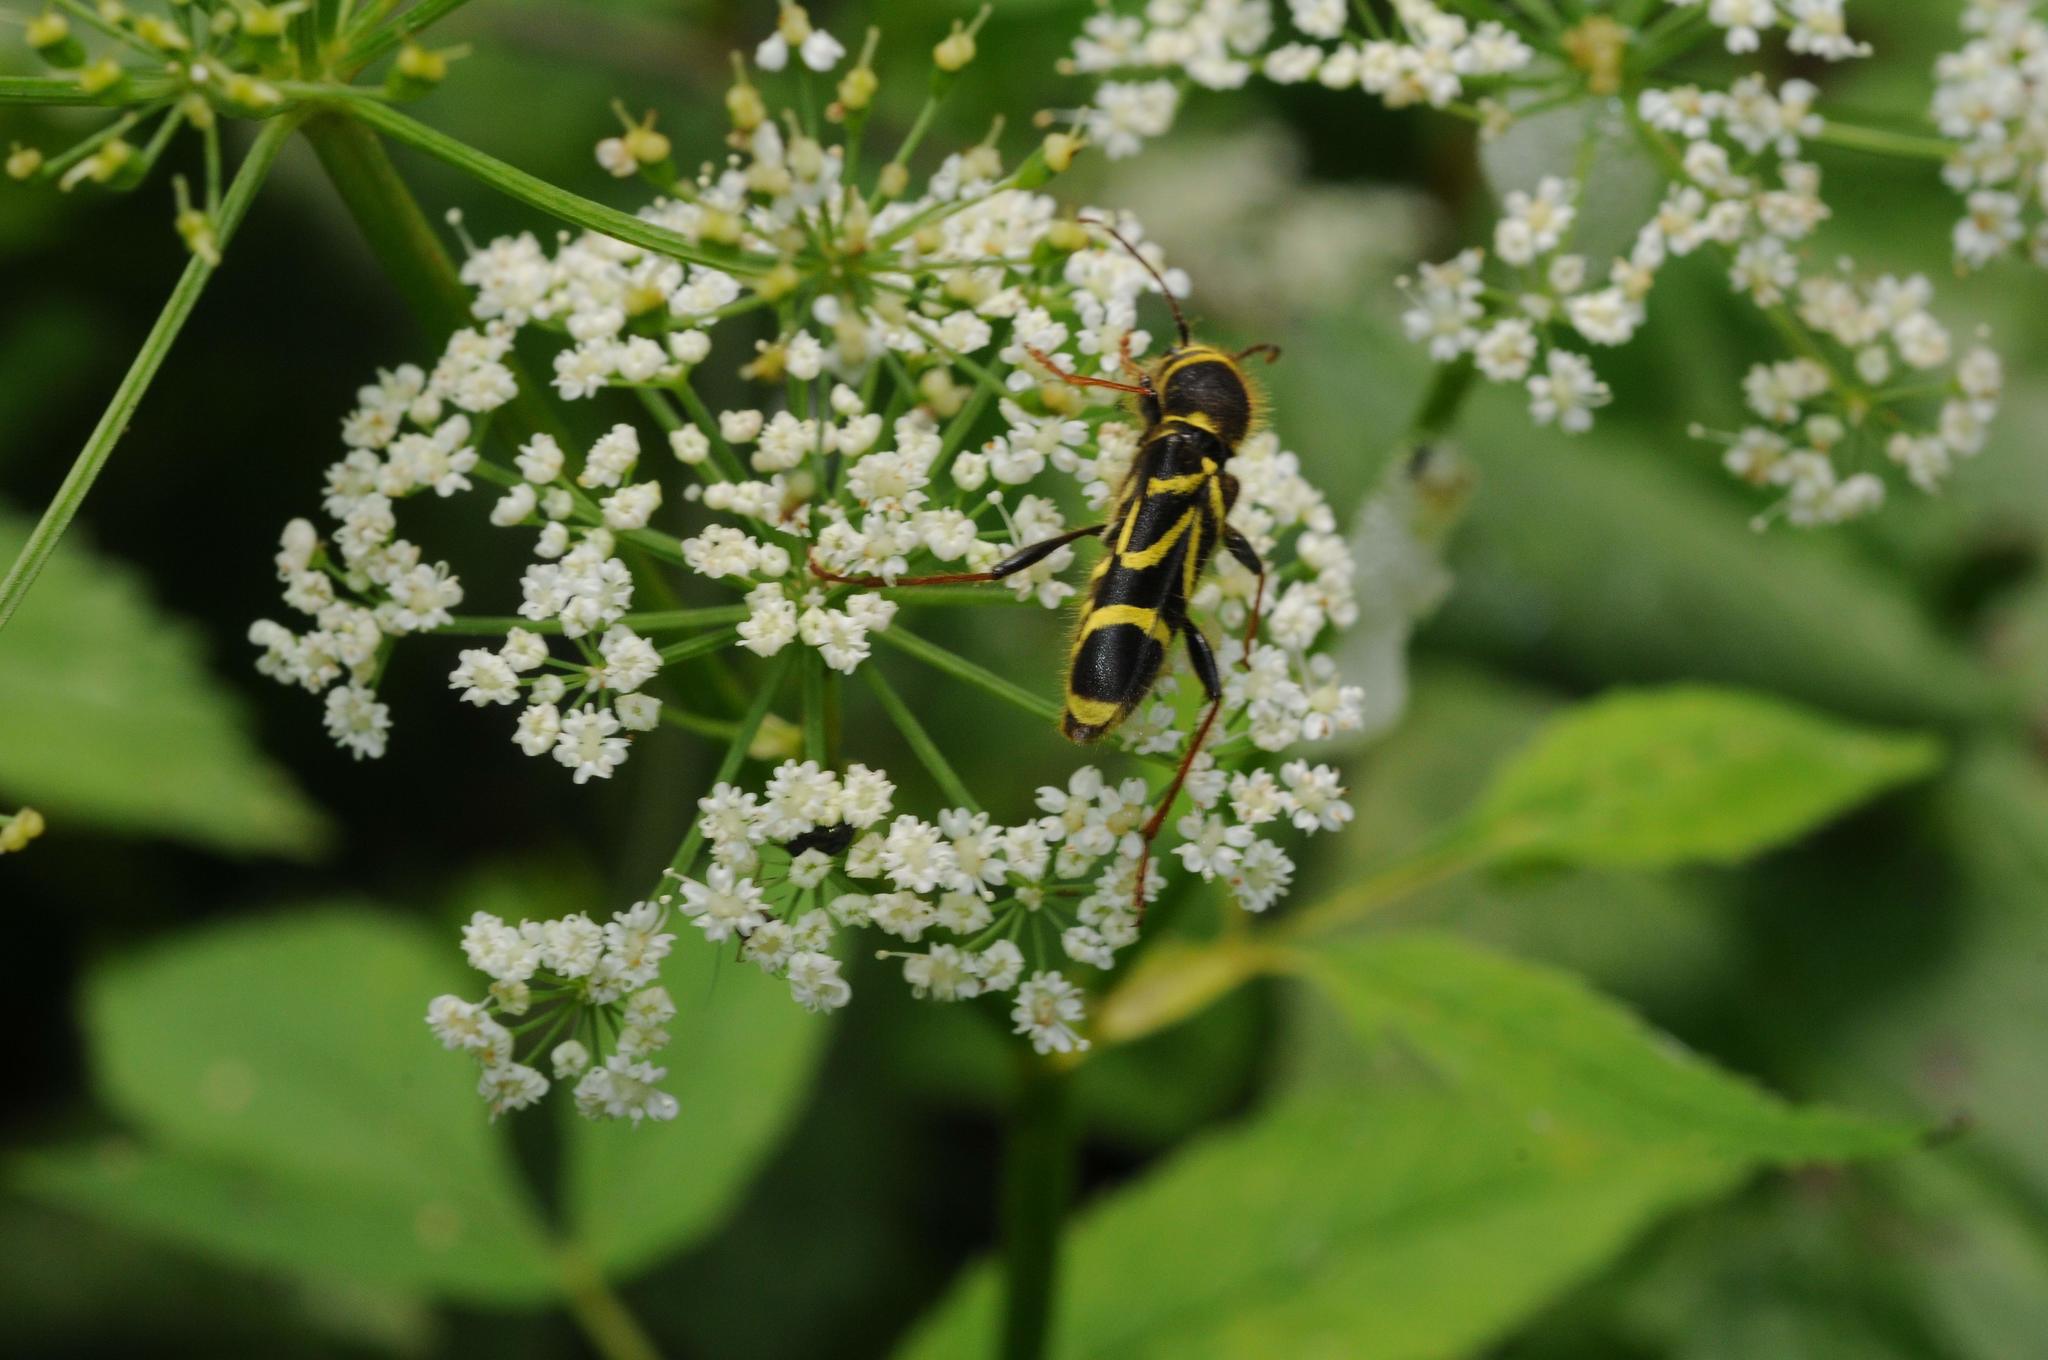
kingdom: Animalia
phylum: Arthropoda
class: Insecta
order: Coleoptera
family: Cerambycidae
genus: Cyrtoclytus
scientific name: Cyrtoclytus capra
